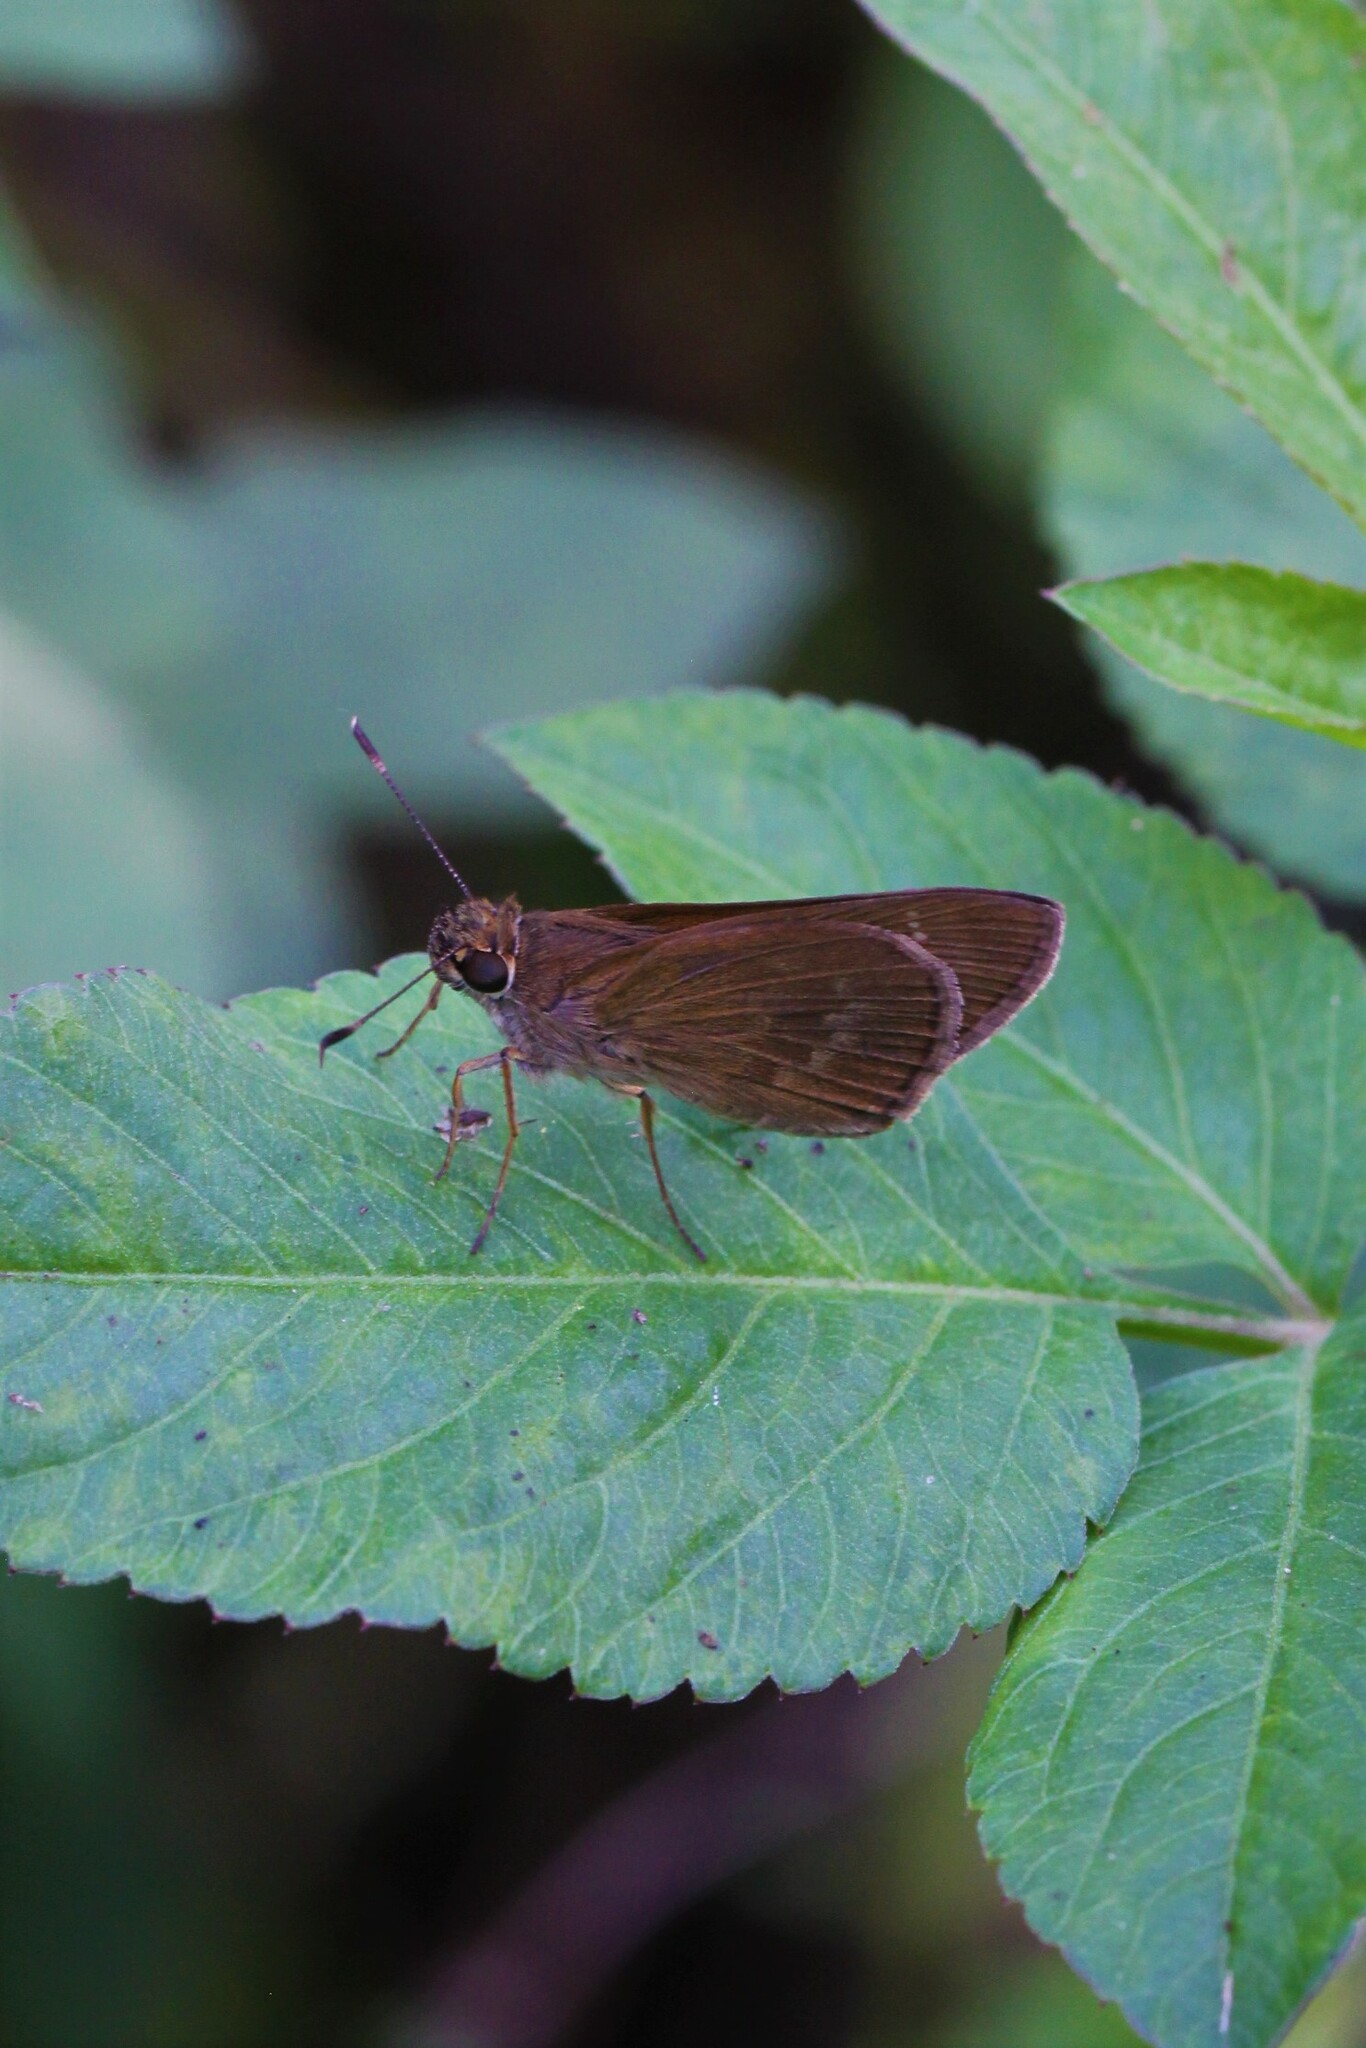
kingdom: Animalia
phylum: Arthropoda
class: Insecta
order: Lepidoptera
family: Hesperiidae
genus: Cymaenes
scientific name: Cymaenes tripunctus
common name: Dingy dotted skipper
